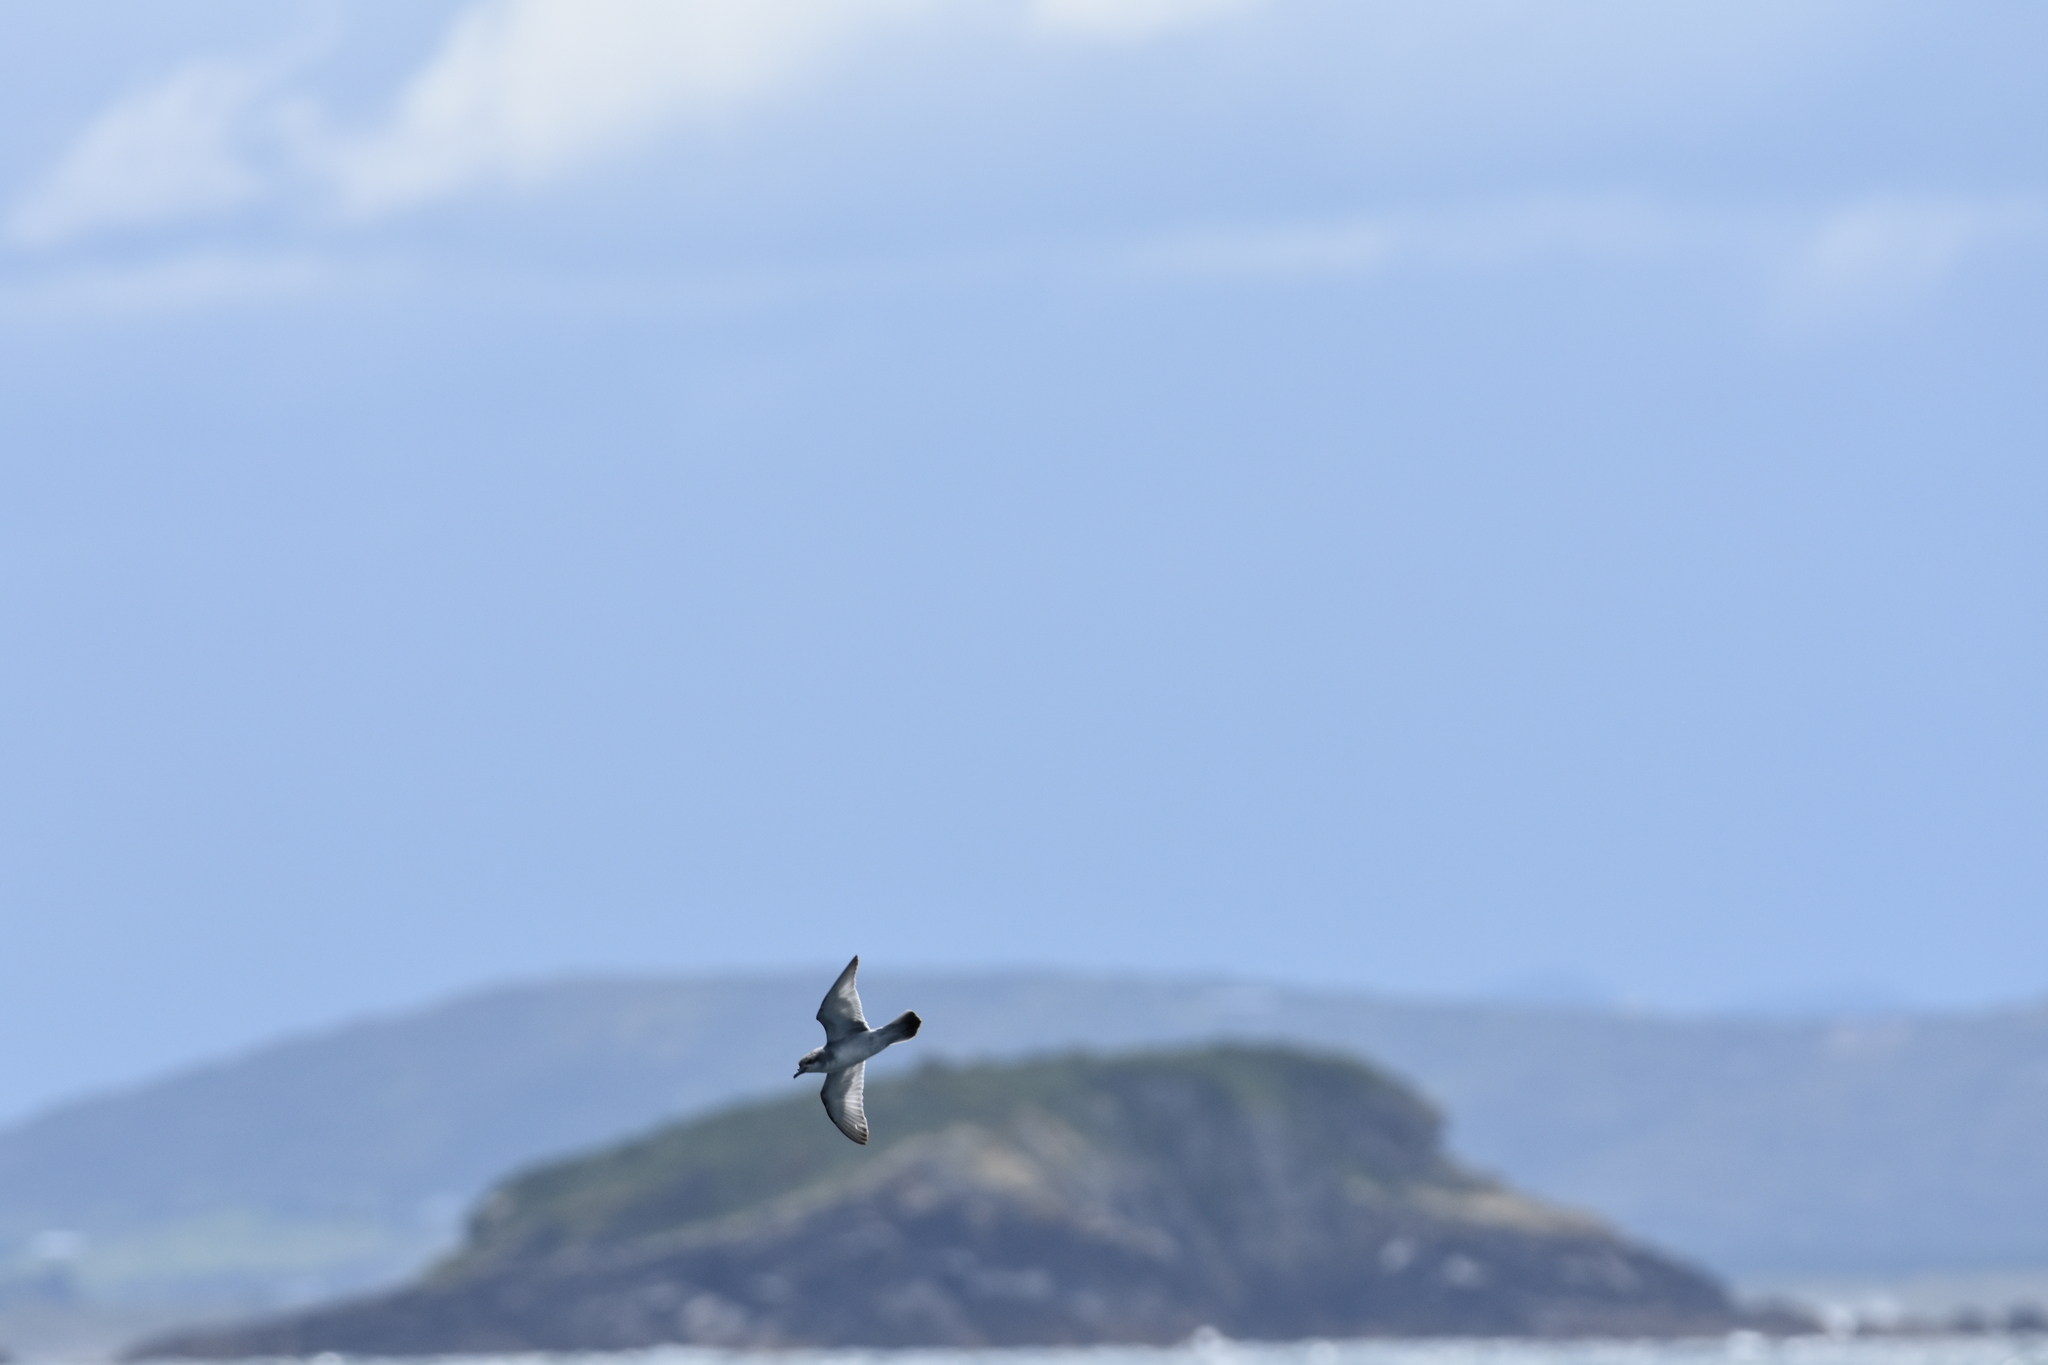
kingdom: Animalia
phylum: Chordata
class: Aves
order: Procellariiformes
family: Procellariidae
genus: Pachyptila
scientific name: Pachyptila turtur
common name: Fairy prion
